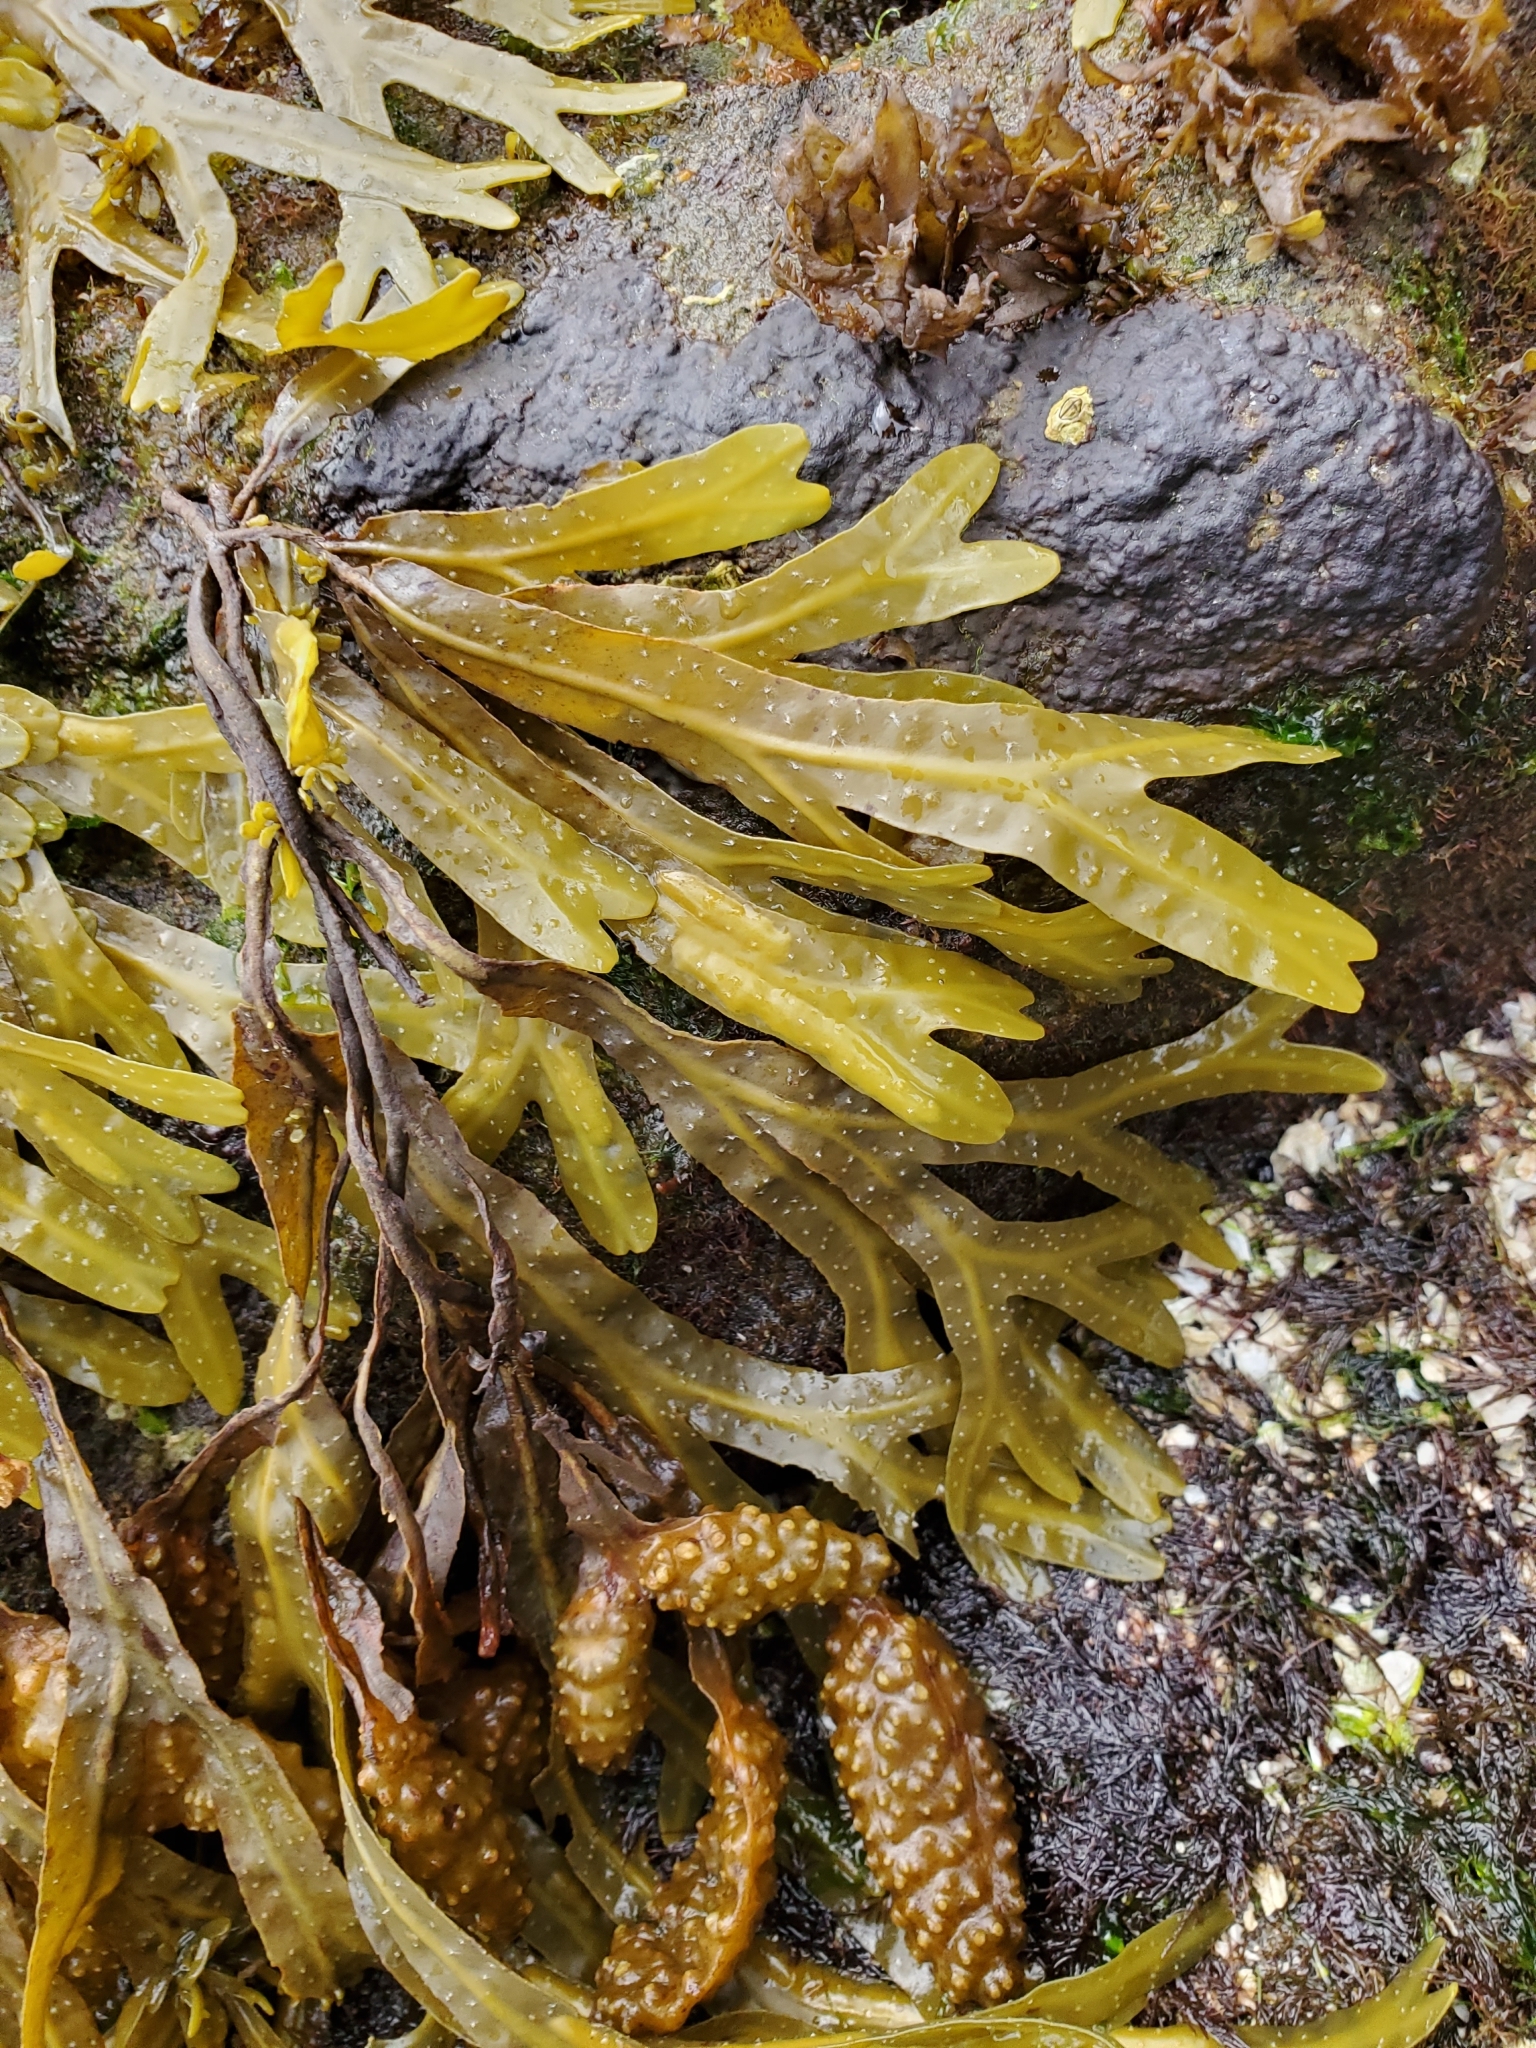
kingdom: Chromista
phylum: Ochrophyta
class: Phaeophyceae
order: Fucales
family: Fucaceae
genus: Fucus
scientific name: Fucus distichus
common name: Rockweed
